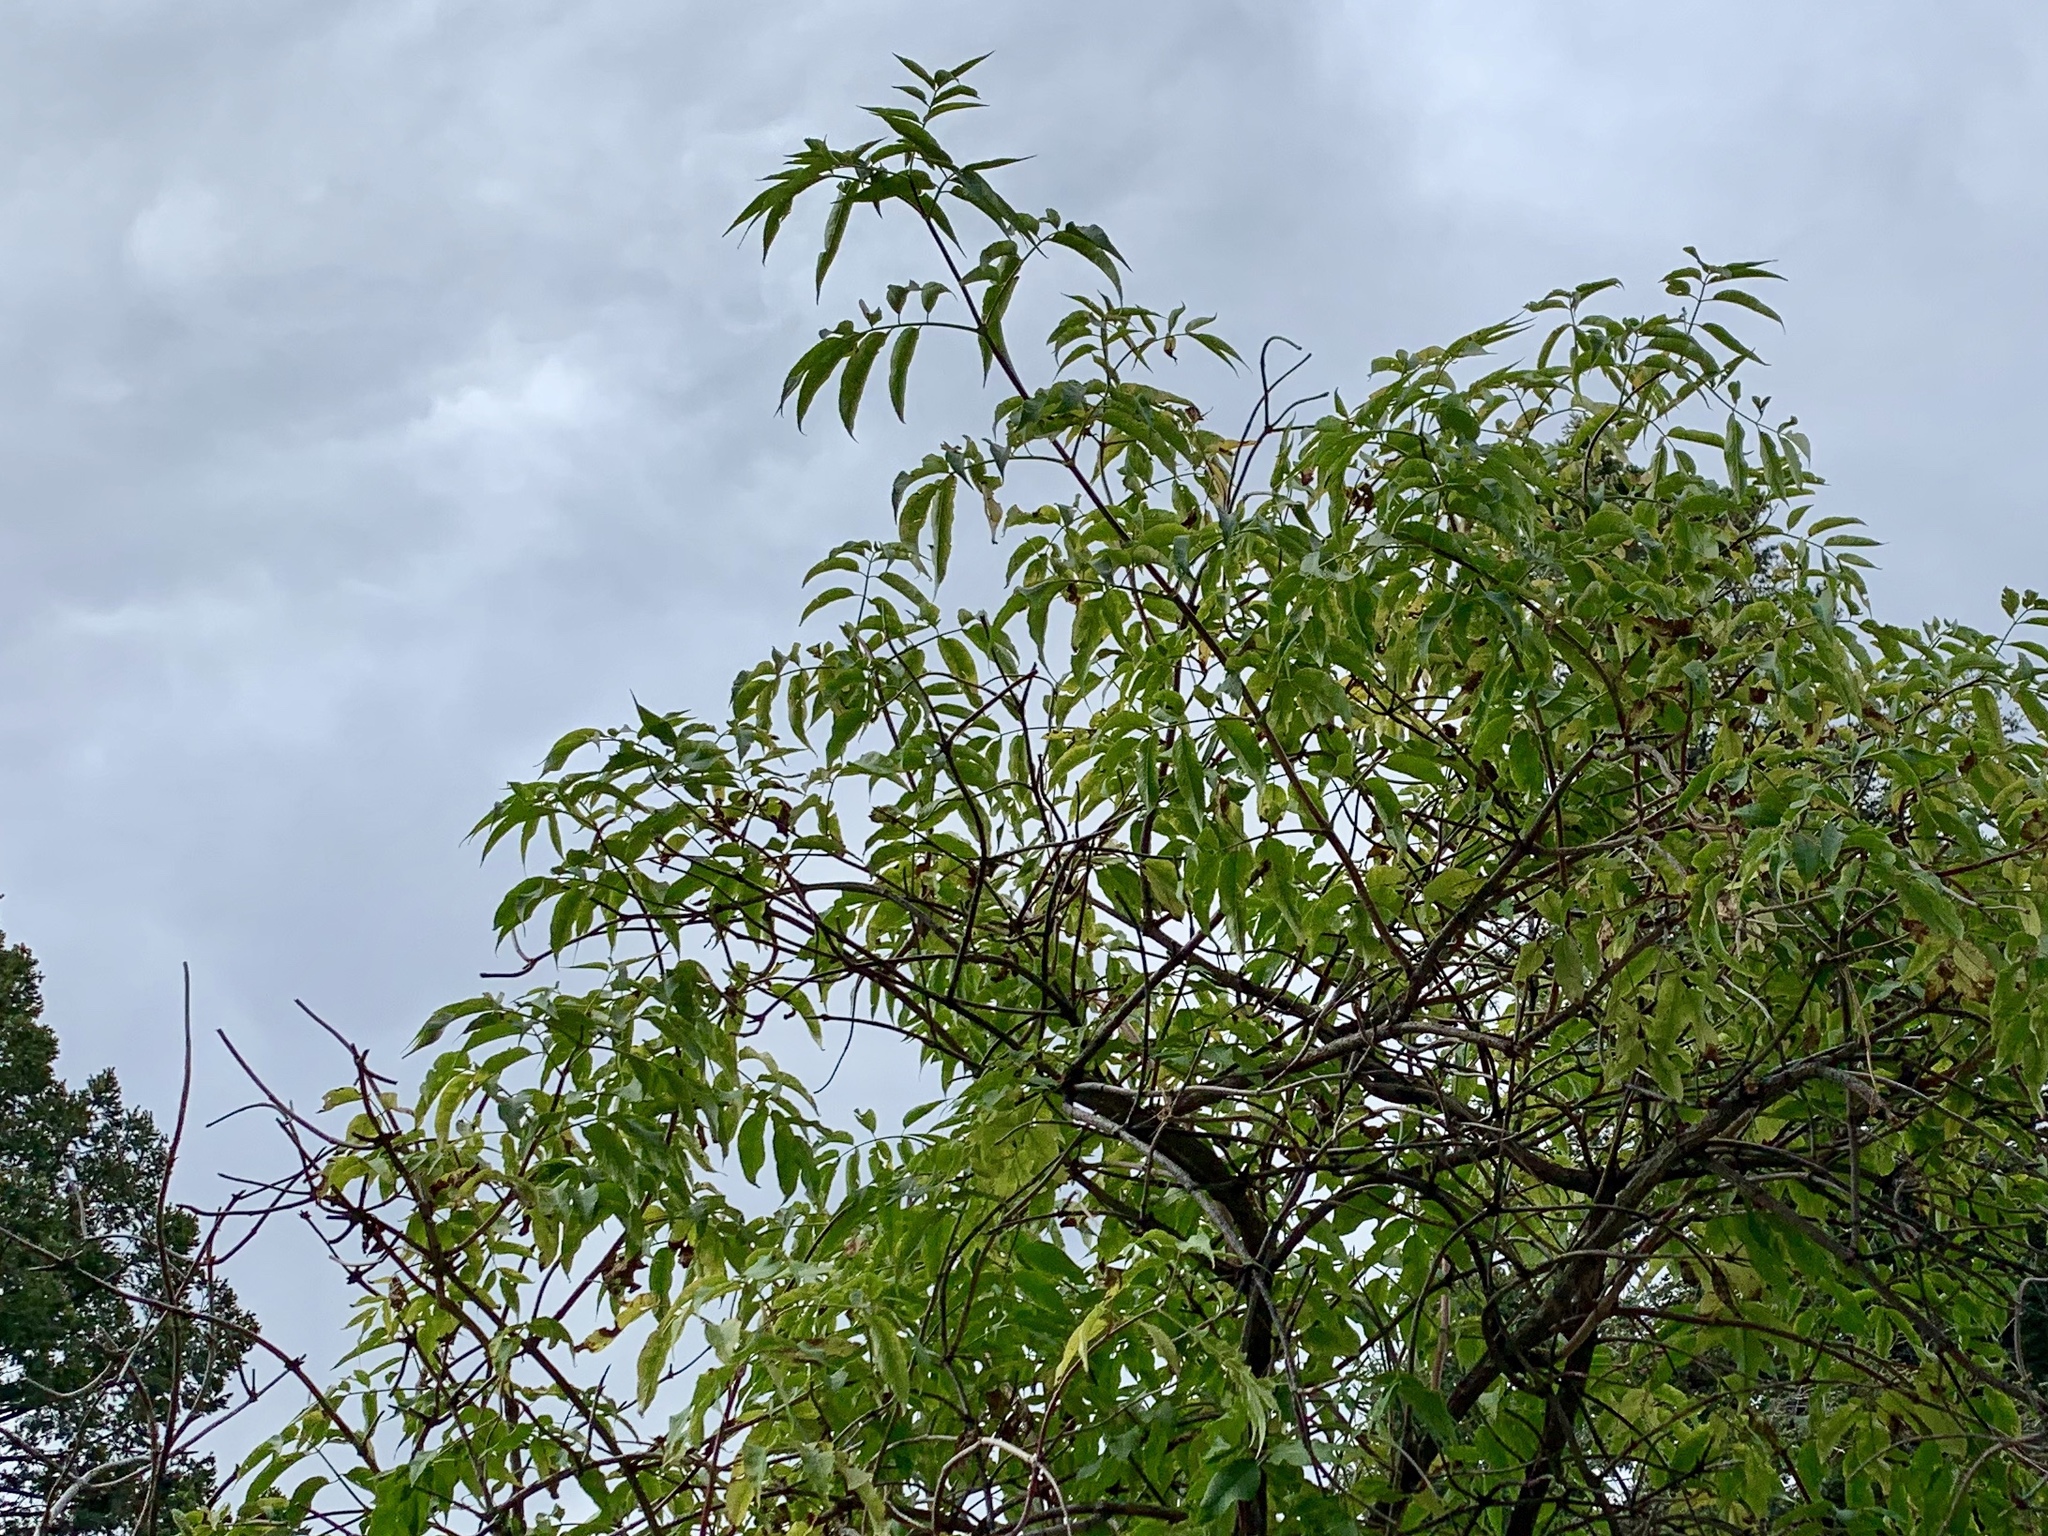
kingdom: Plantae
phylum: Tracheophyta
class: Magnoliopsida
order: Dipsacales
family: Viburnaceae
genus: Sambucus
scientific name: Sambucus cerulea
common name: Blue elder
